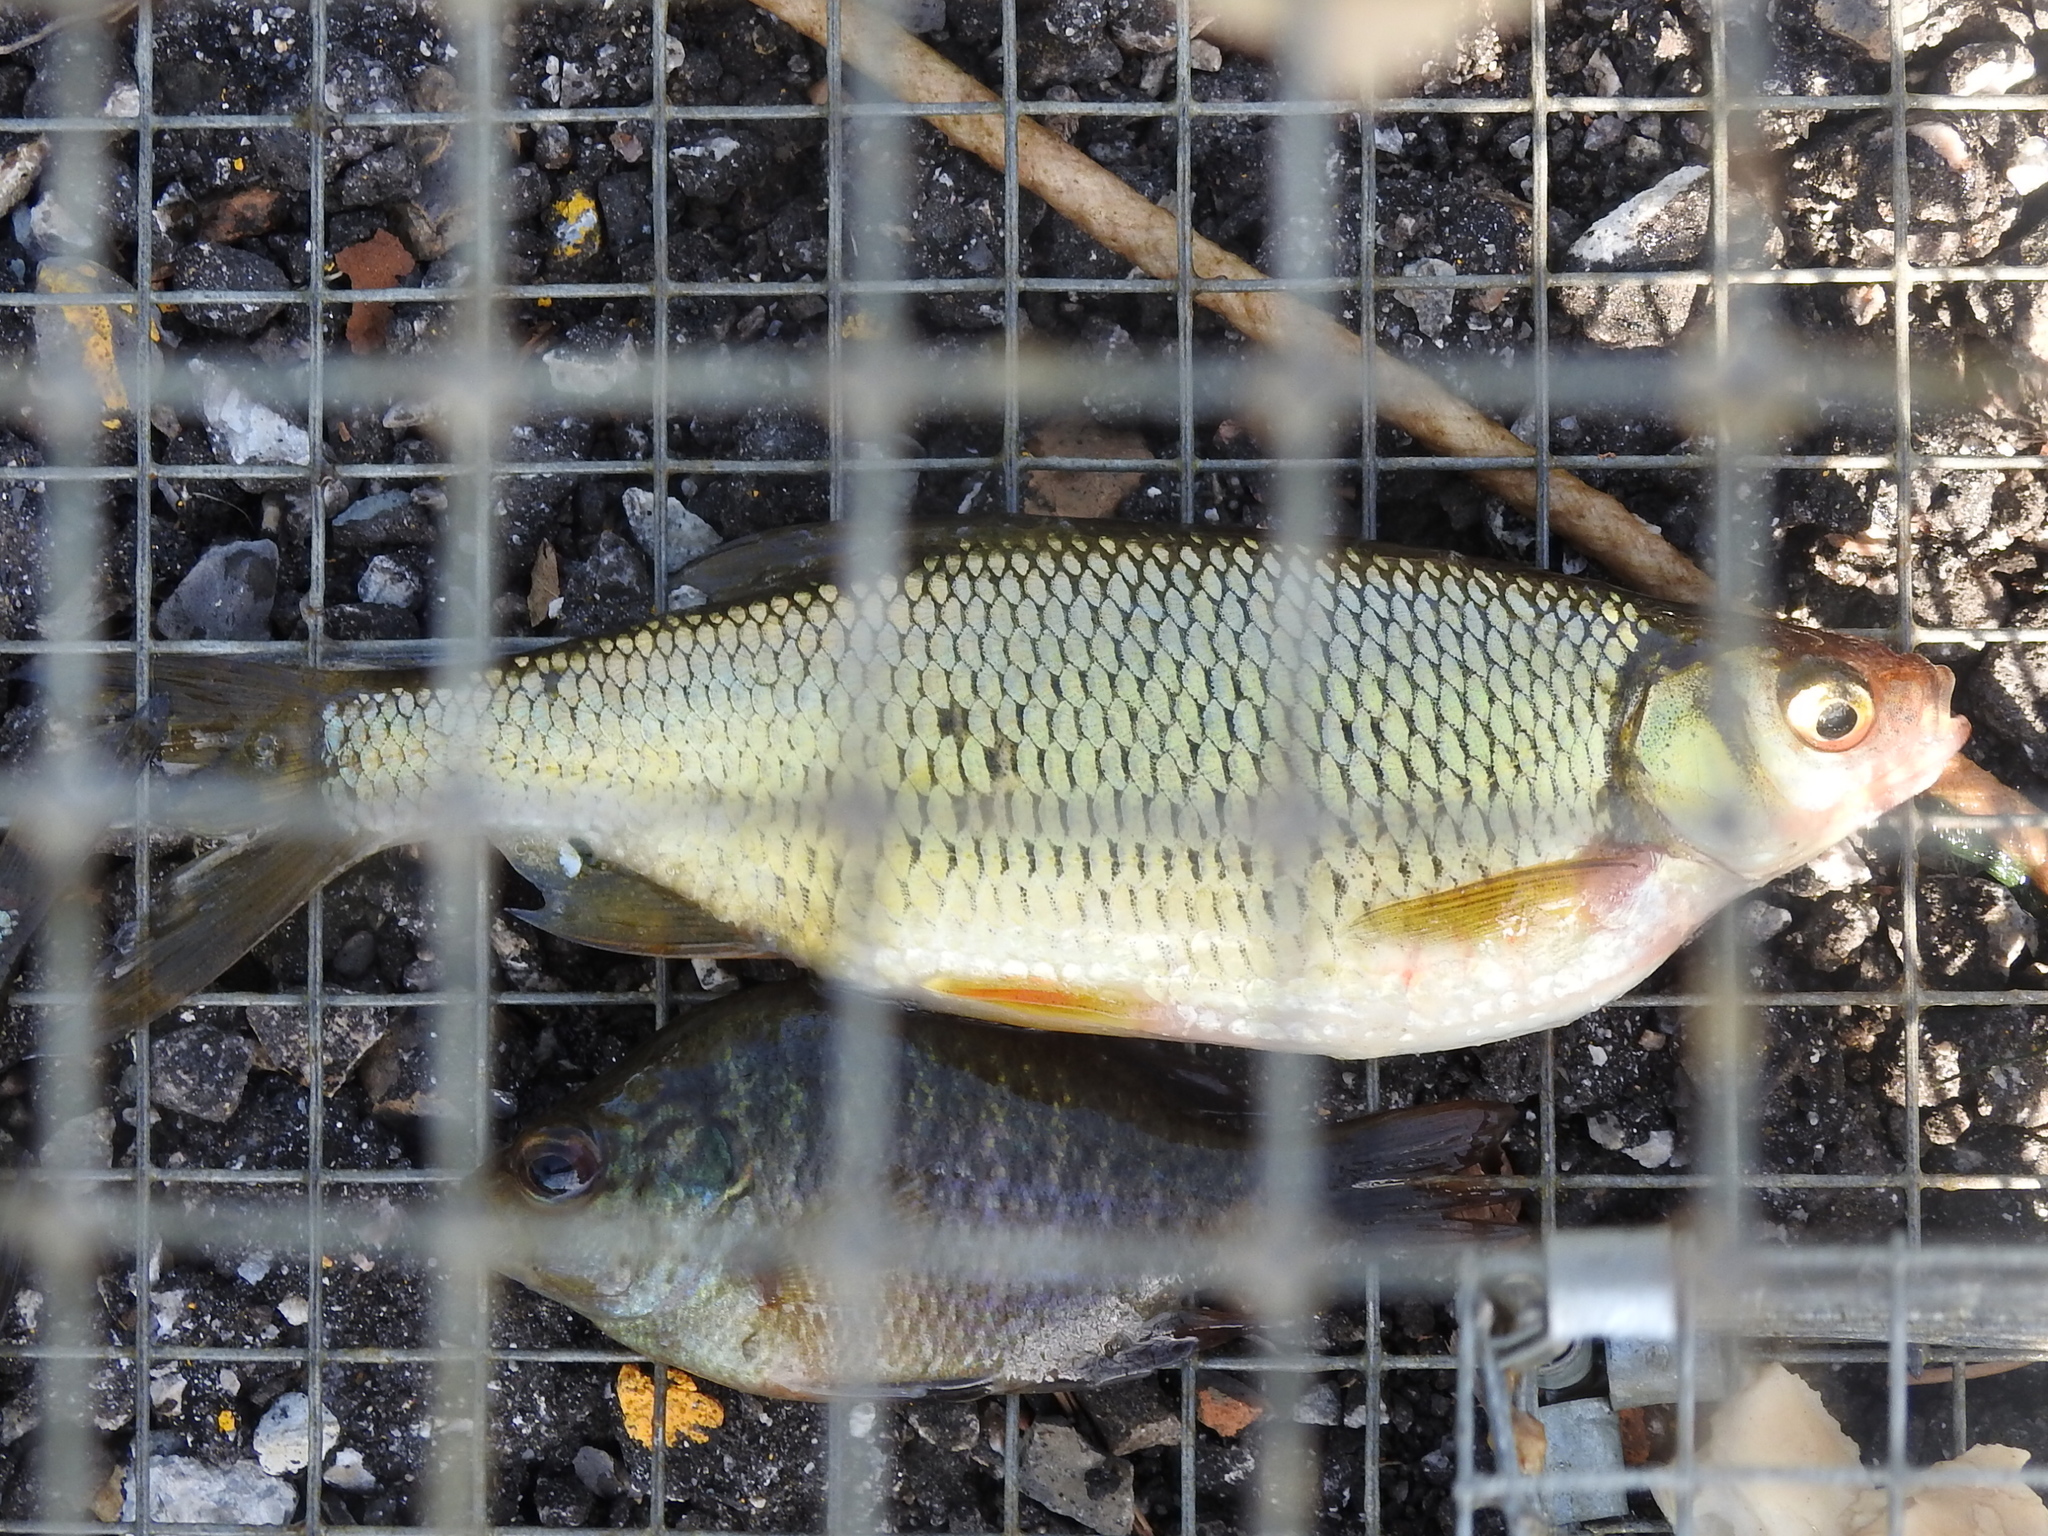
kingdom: Animalia
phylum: Chordata
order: Cypriniformes
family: Cyprinidae
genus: Notemigonus
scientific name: Notemigonus crysoleucas
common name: Golden shiner
